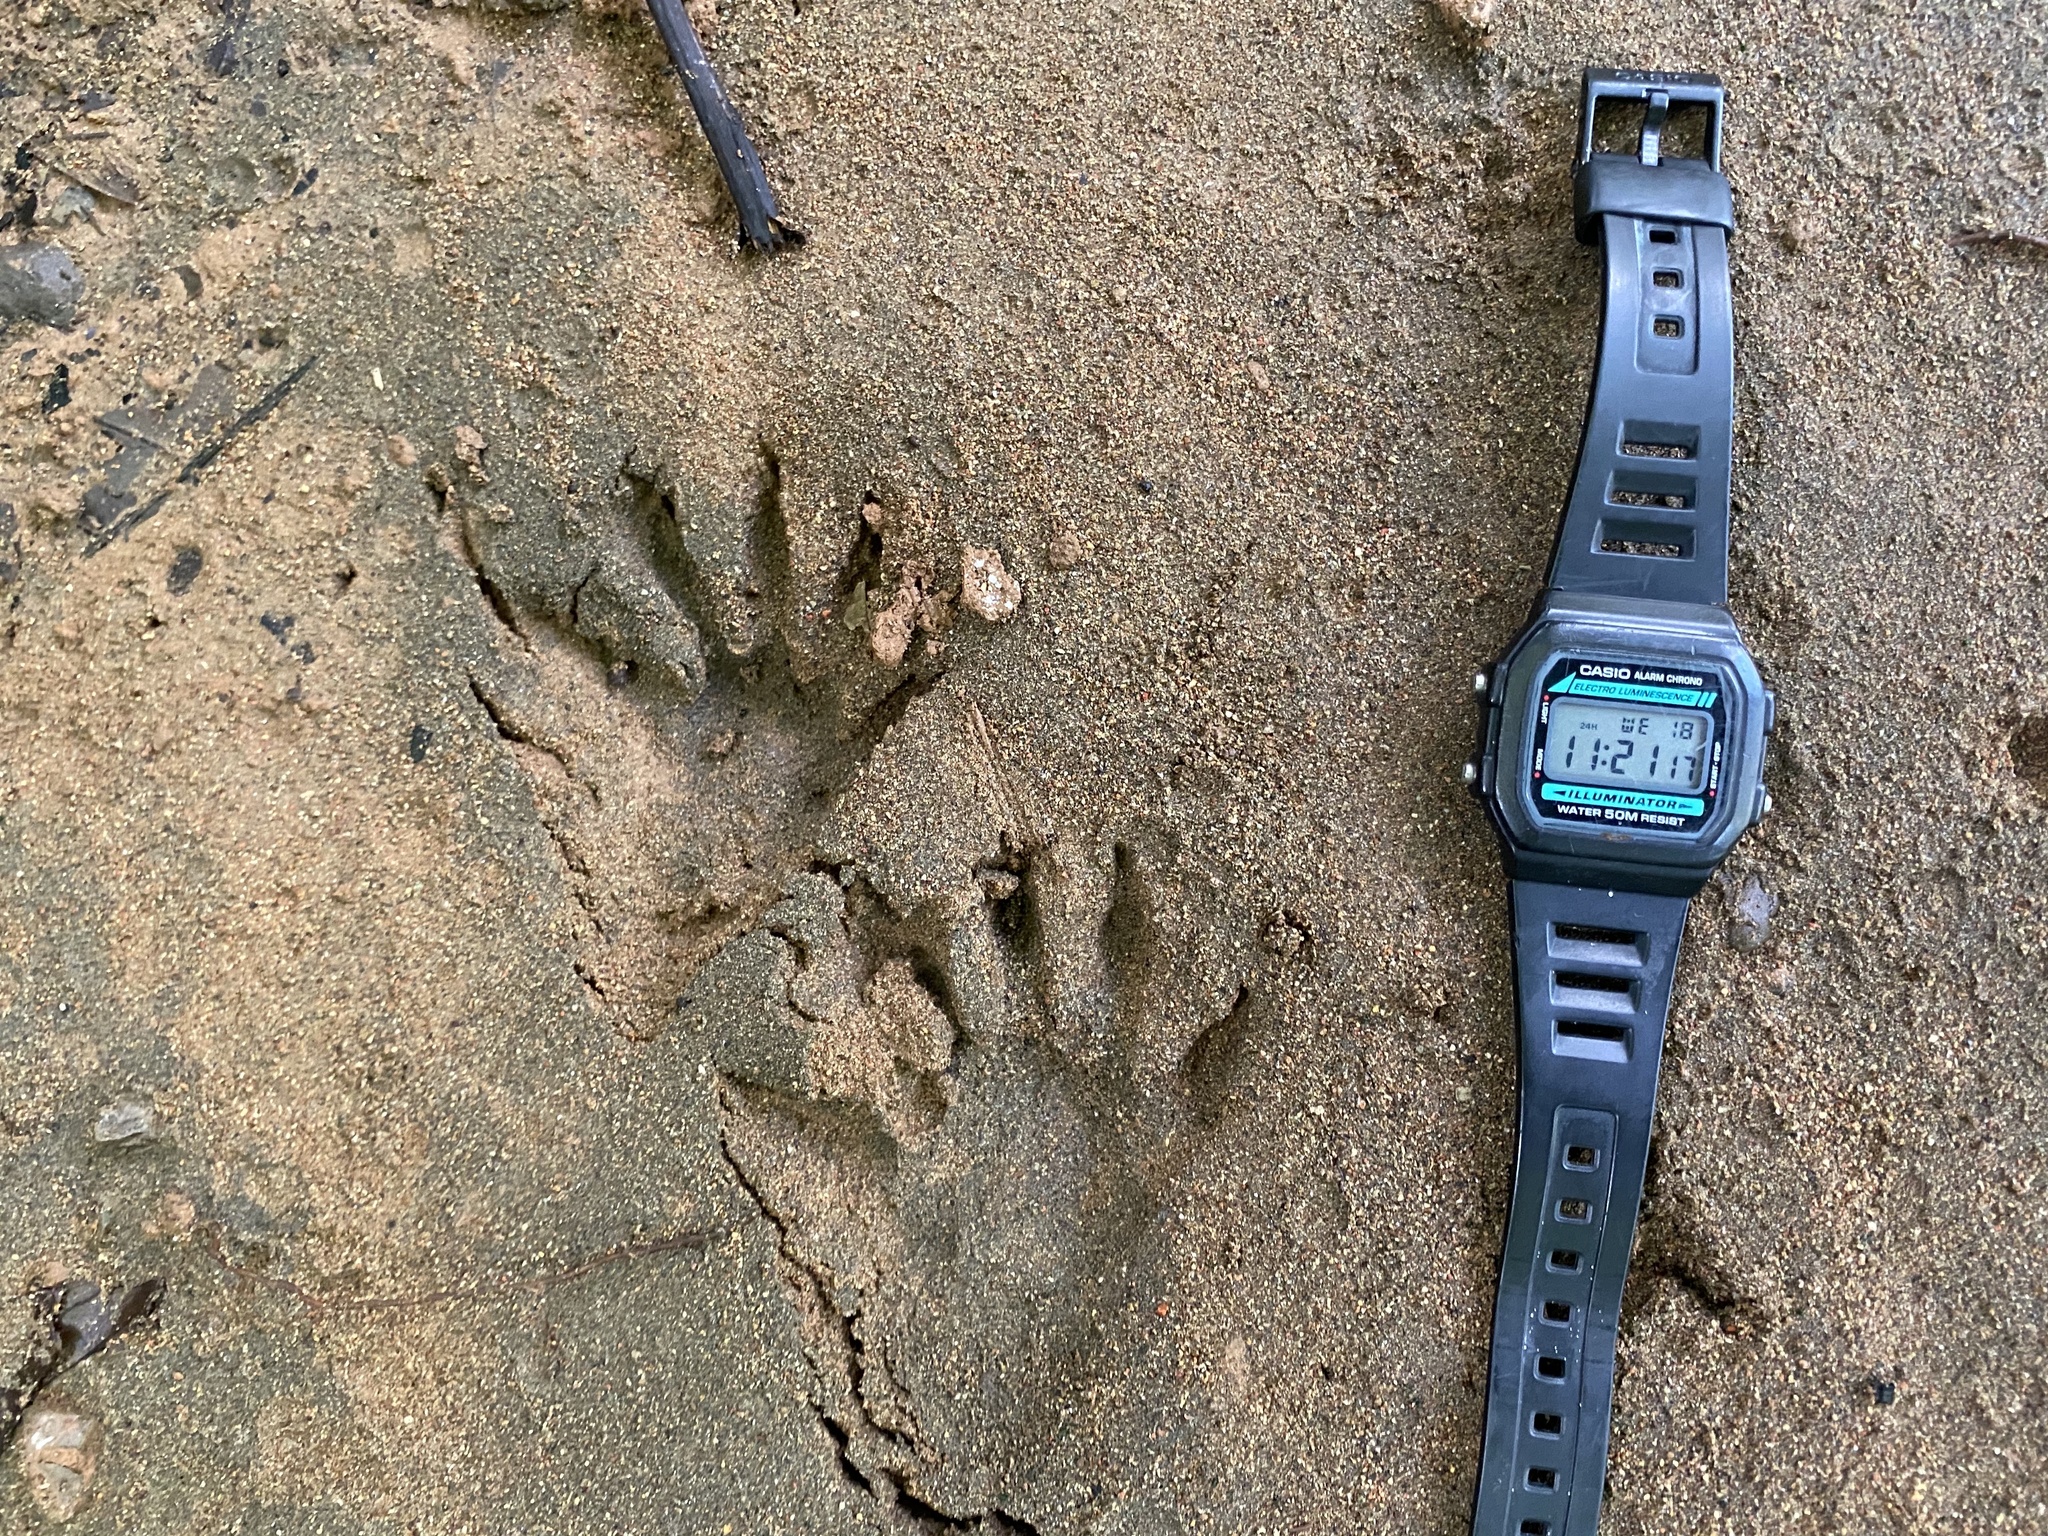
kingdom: Animalia
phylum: Chordata
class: Mammalia
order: Carnivora
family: Procyonidae
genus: Procyon
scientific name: Procyon lotor
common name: Raccoon
